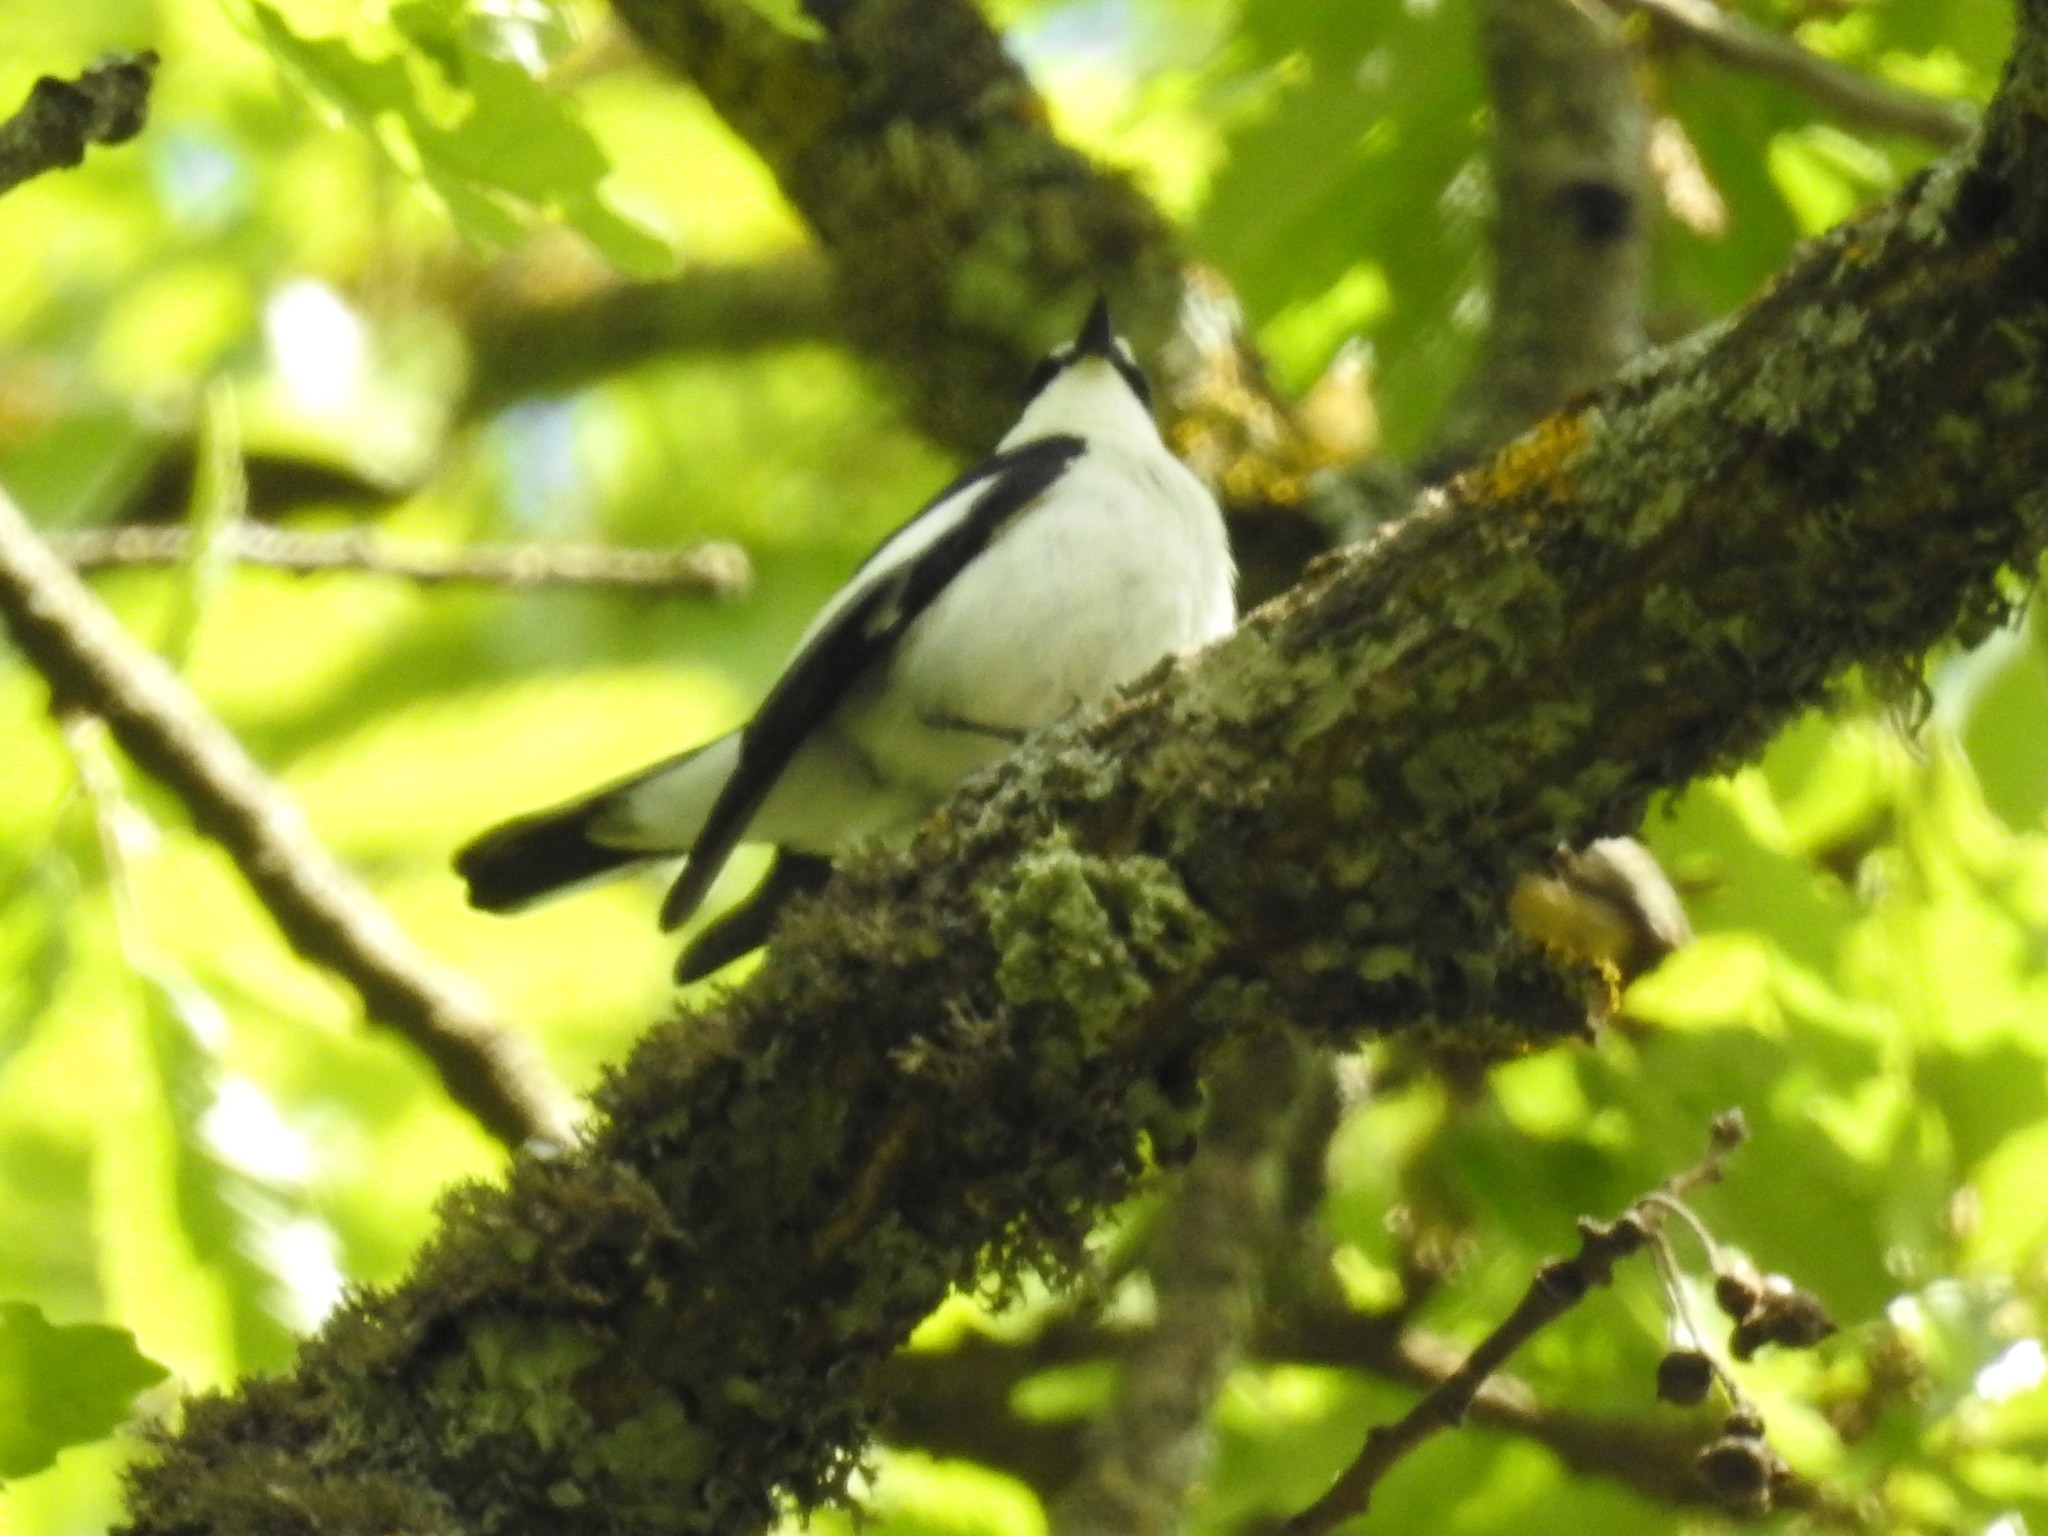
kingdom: Animalia
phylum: Chordata
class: Aves
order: Passeriformes
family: Muscicapidae
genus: Ficedula
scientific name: Ficedula speculigera
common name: Atlas pied flycatcher
